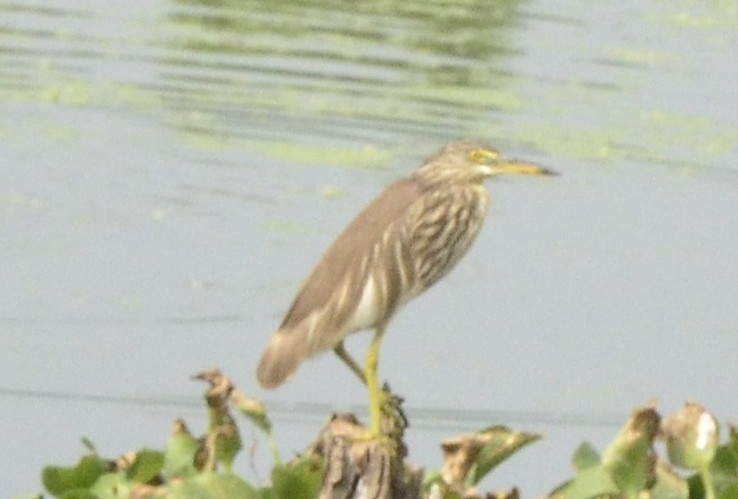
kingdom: Animalia
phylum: Chordata
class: Aves
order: Pelecaniformes
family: Ardeidae
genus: Ardeola
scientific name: Ardeola grayii
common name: Indian pond heron
